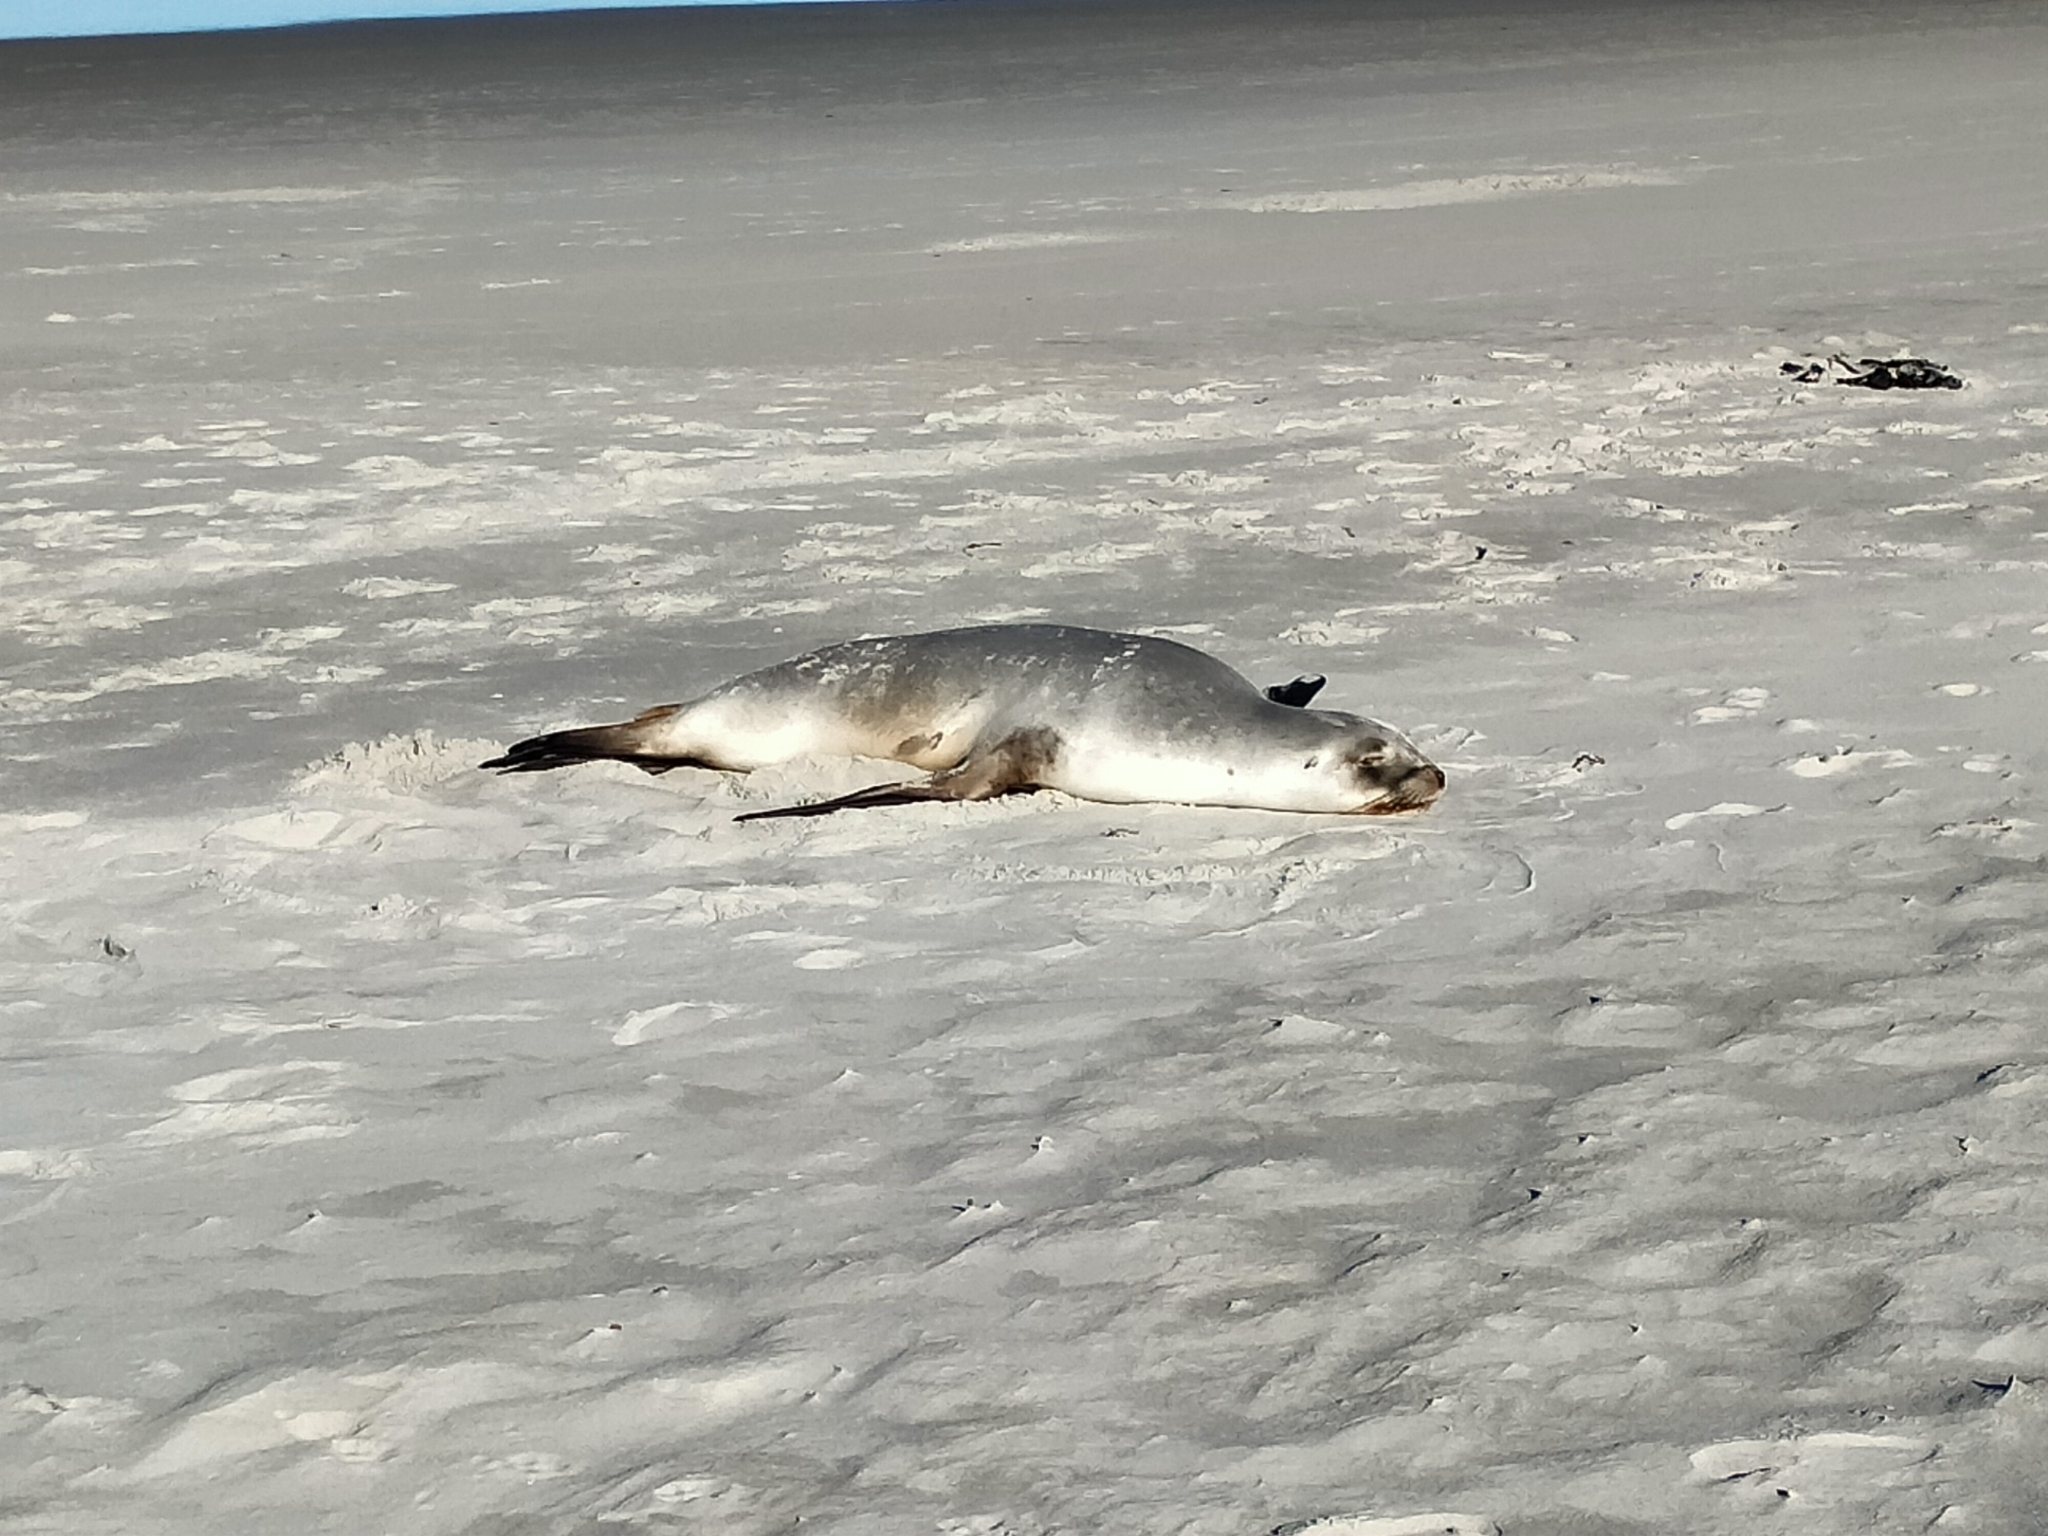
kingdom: Animalia
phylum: Chordata
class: Mammalia
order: Carnivora
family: Otariidae
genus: Phocarctos
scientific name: Phocarctos hookeri
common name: New zealand sea lion
